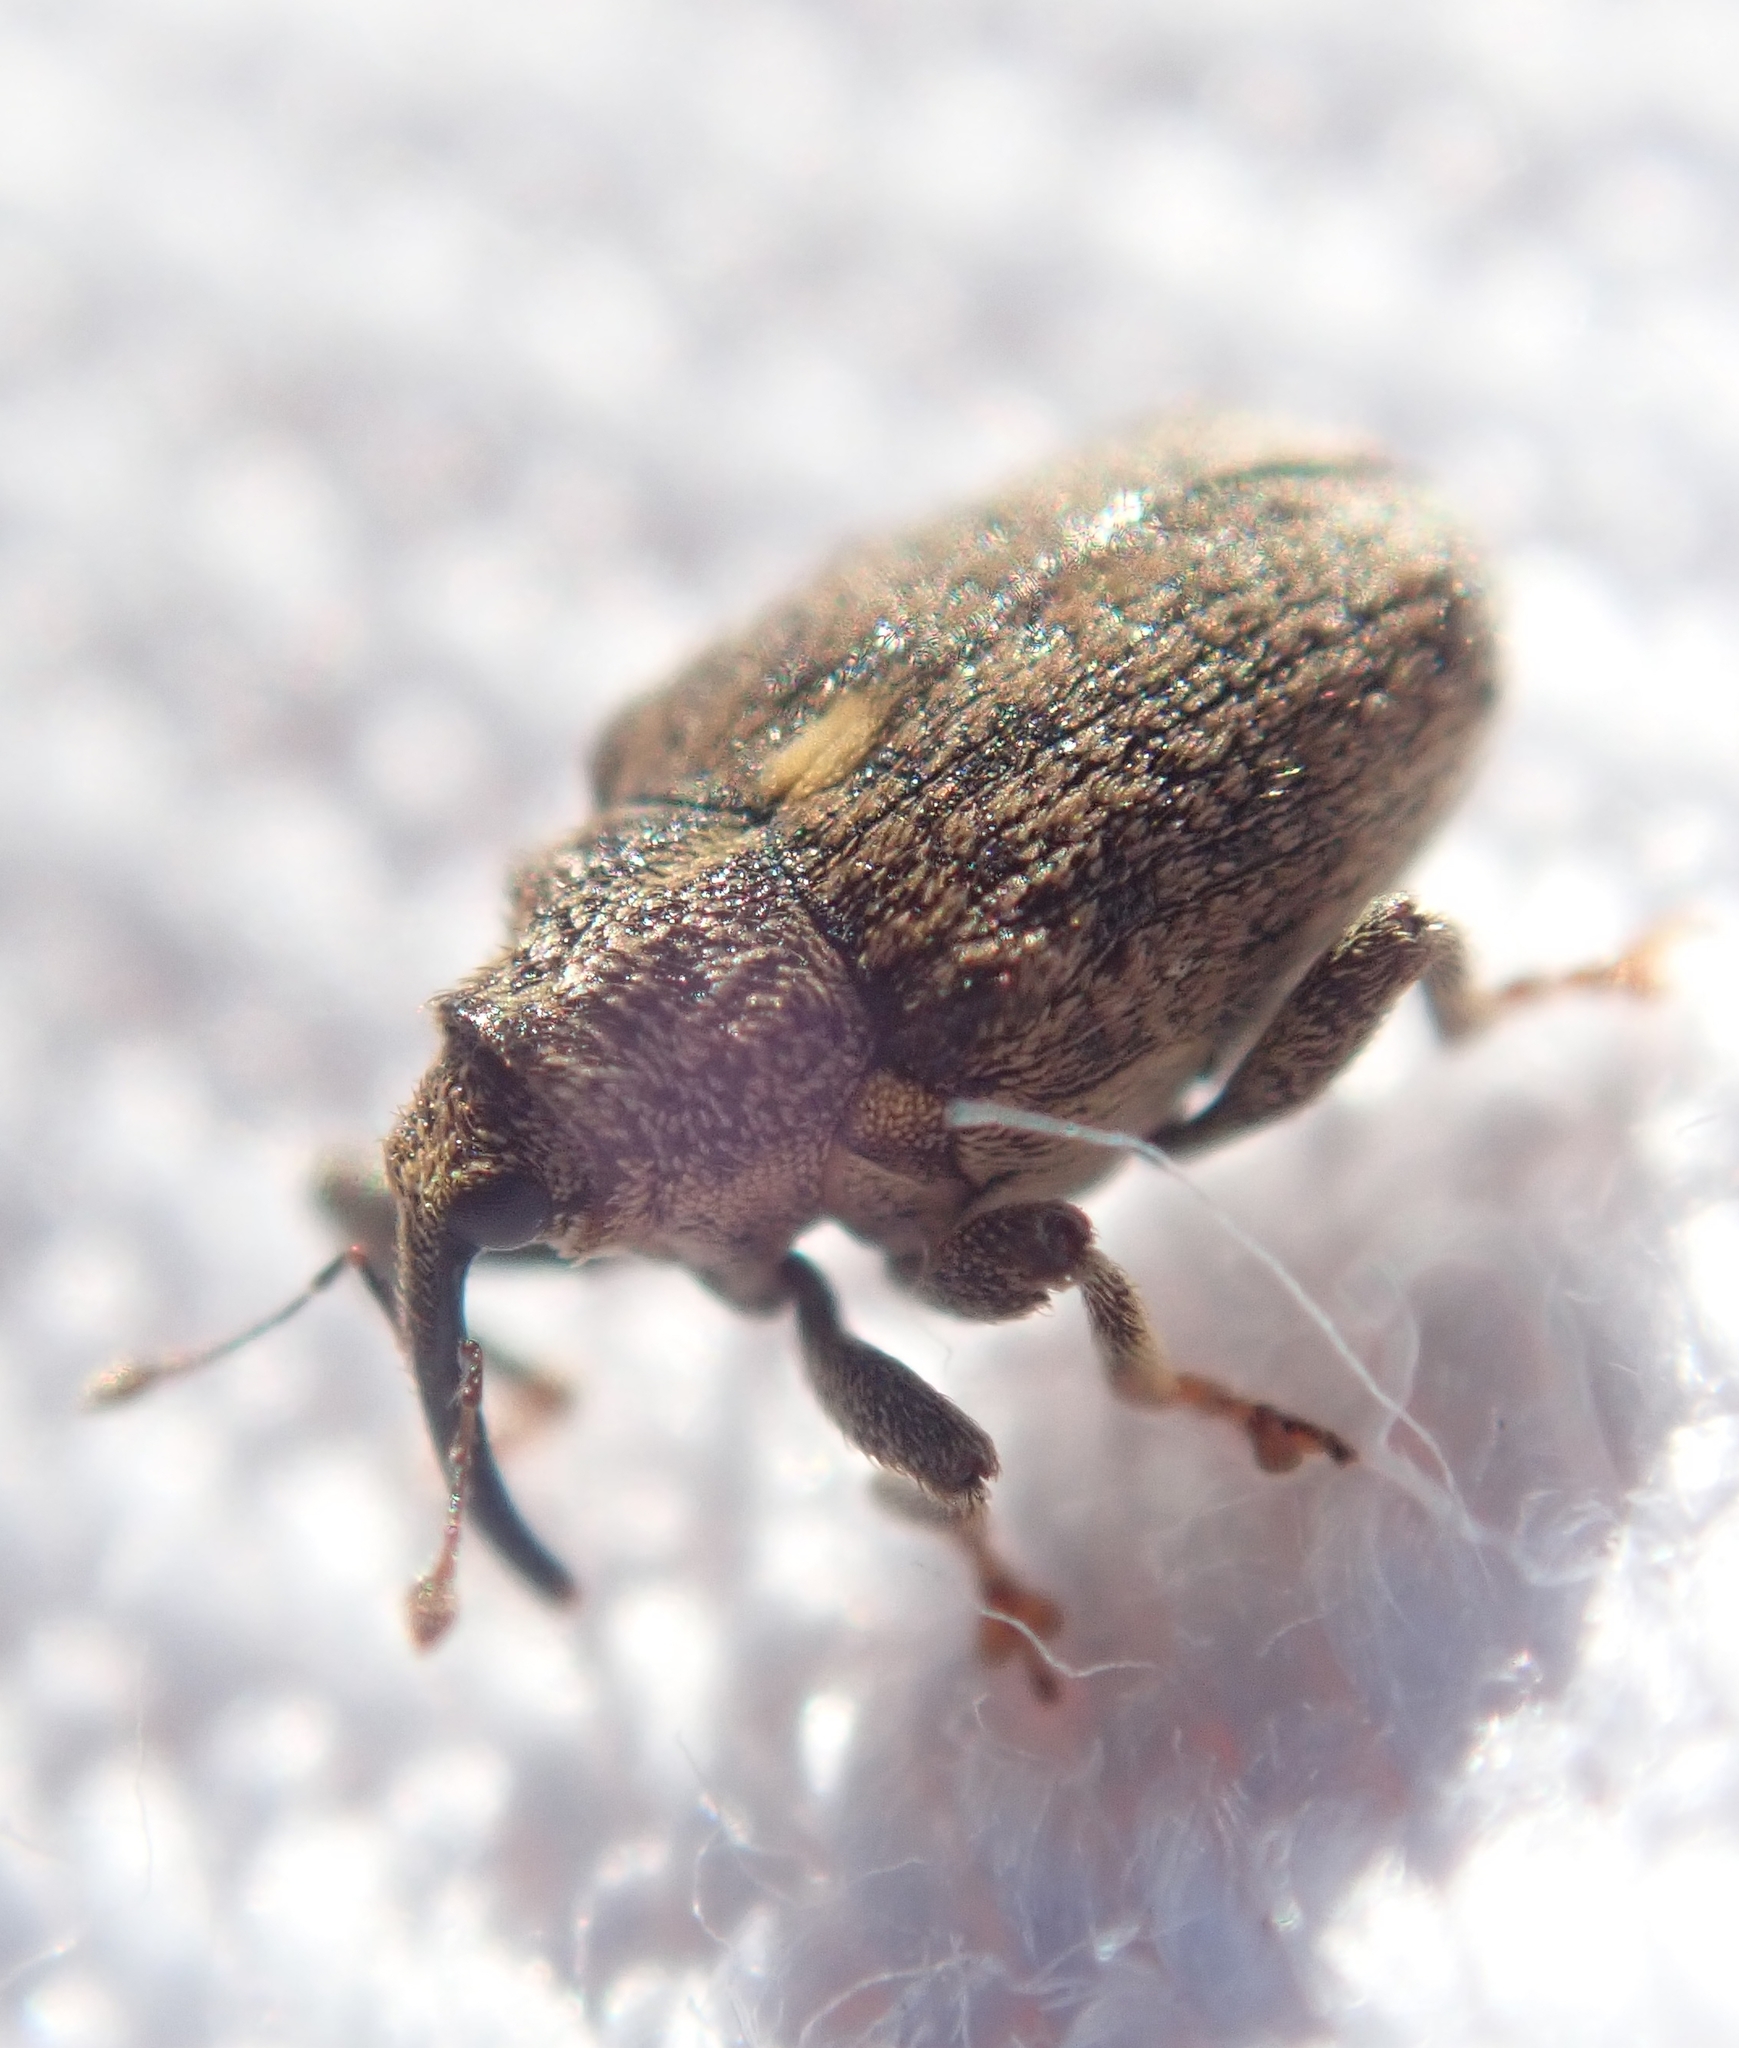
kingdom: Animalia
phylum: Arthropoda
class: Insecta
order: Coleoptera
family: Curculionidae
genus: Ceutorhynchus
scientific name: Ceutorhynchus pallidactylus
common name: Cabbage stem weavil
